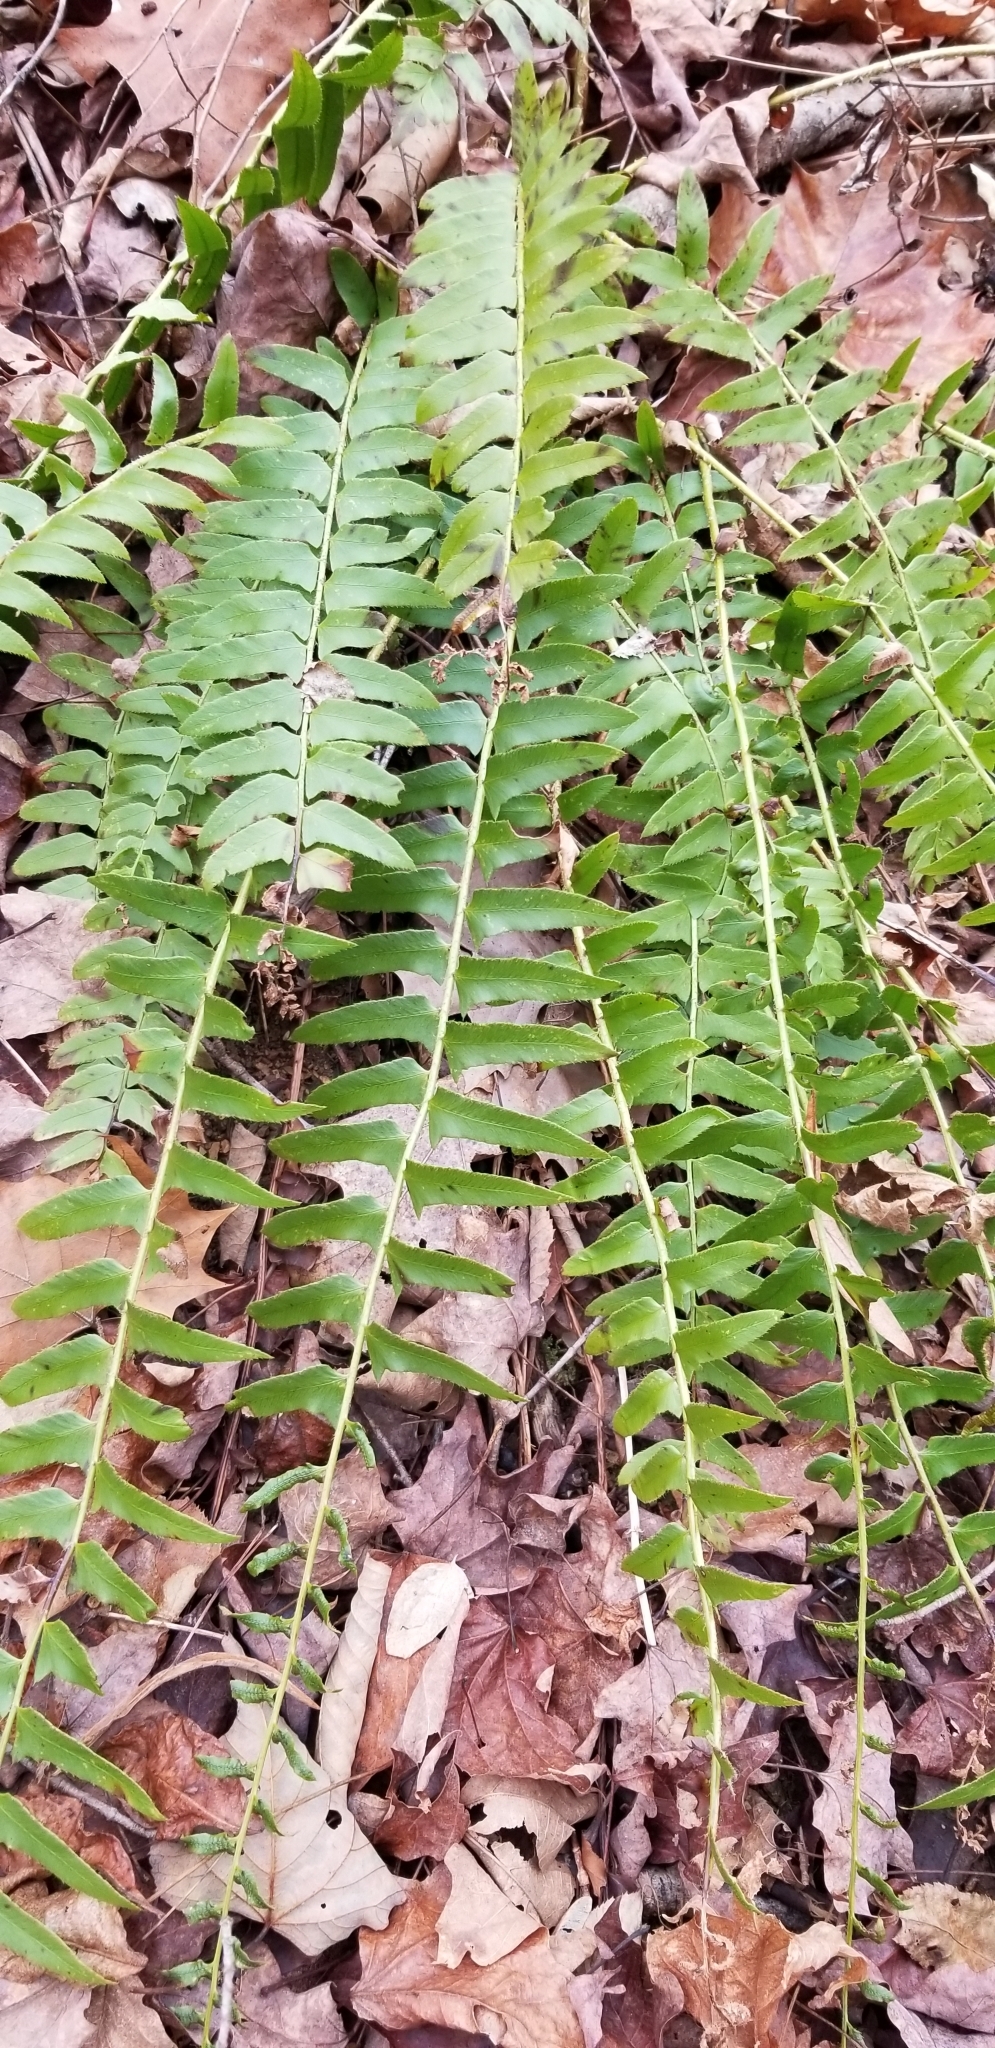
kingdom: Plantae
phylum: Tracheophyta
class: Polypodiopsida
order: Polypodiales
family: Dryopteridaceae
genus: Polystichum
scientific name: Polystichum acrostichoides
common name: Christmas fern
